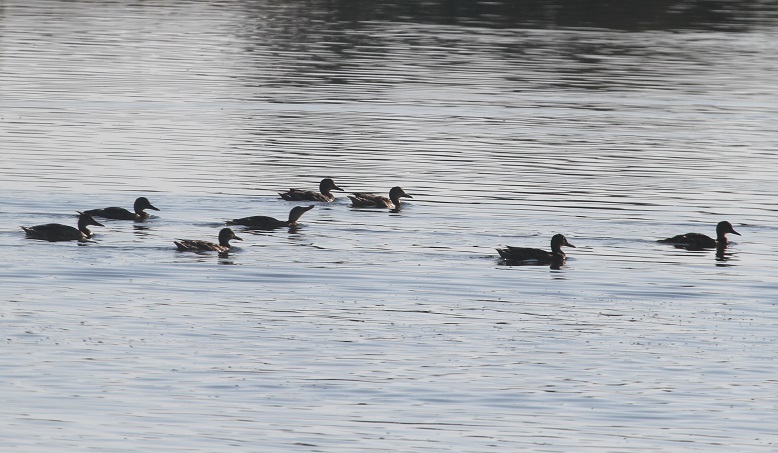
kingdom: Animalia
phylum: Chordata
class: Aves
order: Anseriformes
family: Anatidae
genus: Anas
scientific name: Anas platyrhynchos
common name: Mallard
